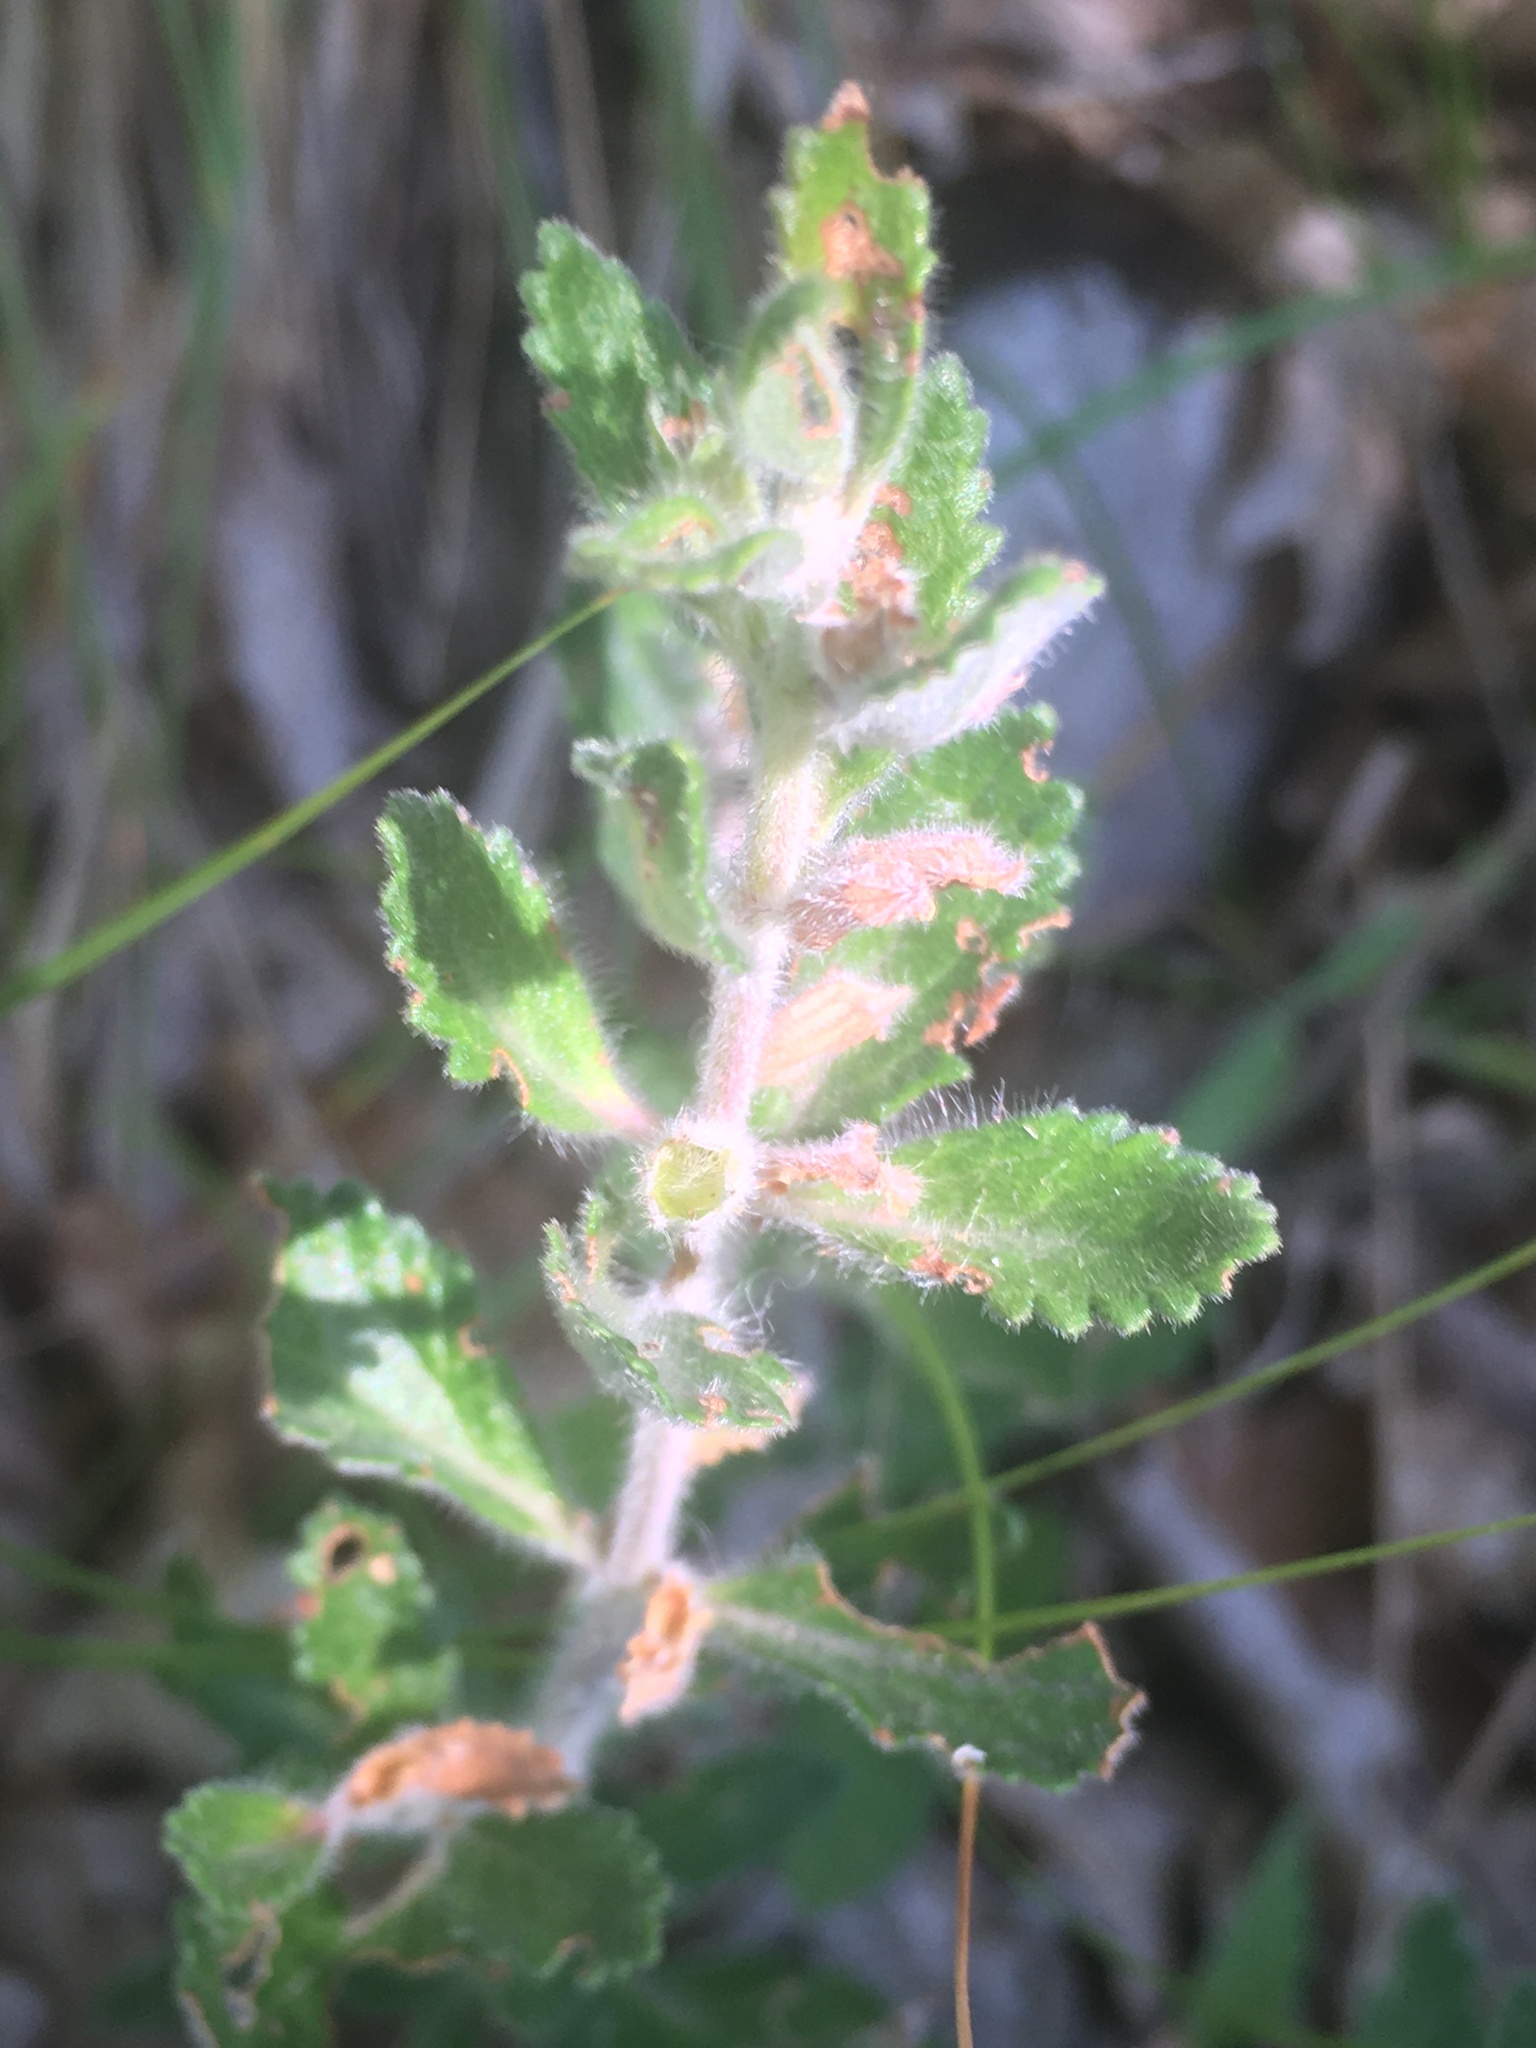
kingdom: Plantae
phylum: Tracheophyta
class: Magnoliopsida
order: Lamiales
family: Lamiaceae
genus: Teucrium
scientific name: Teucrium chamaedrys
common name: Wall germander
